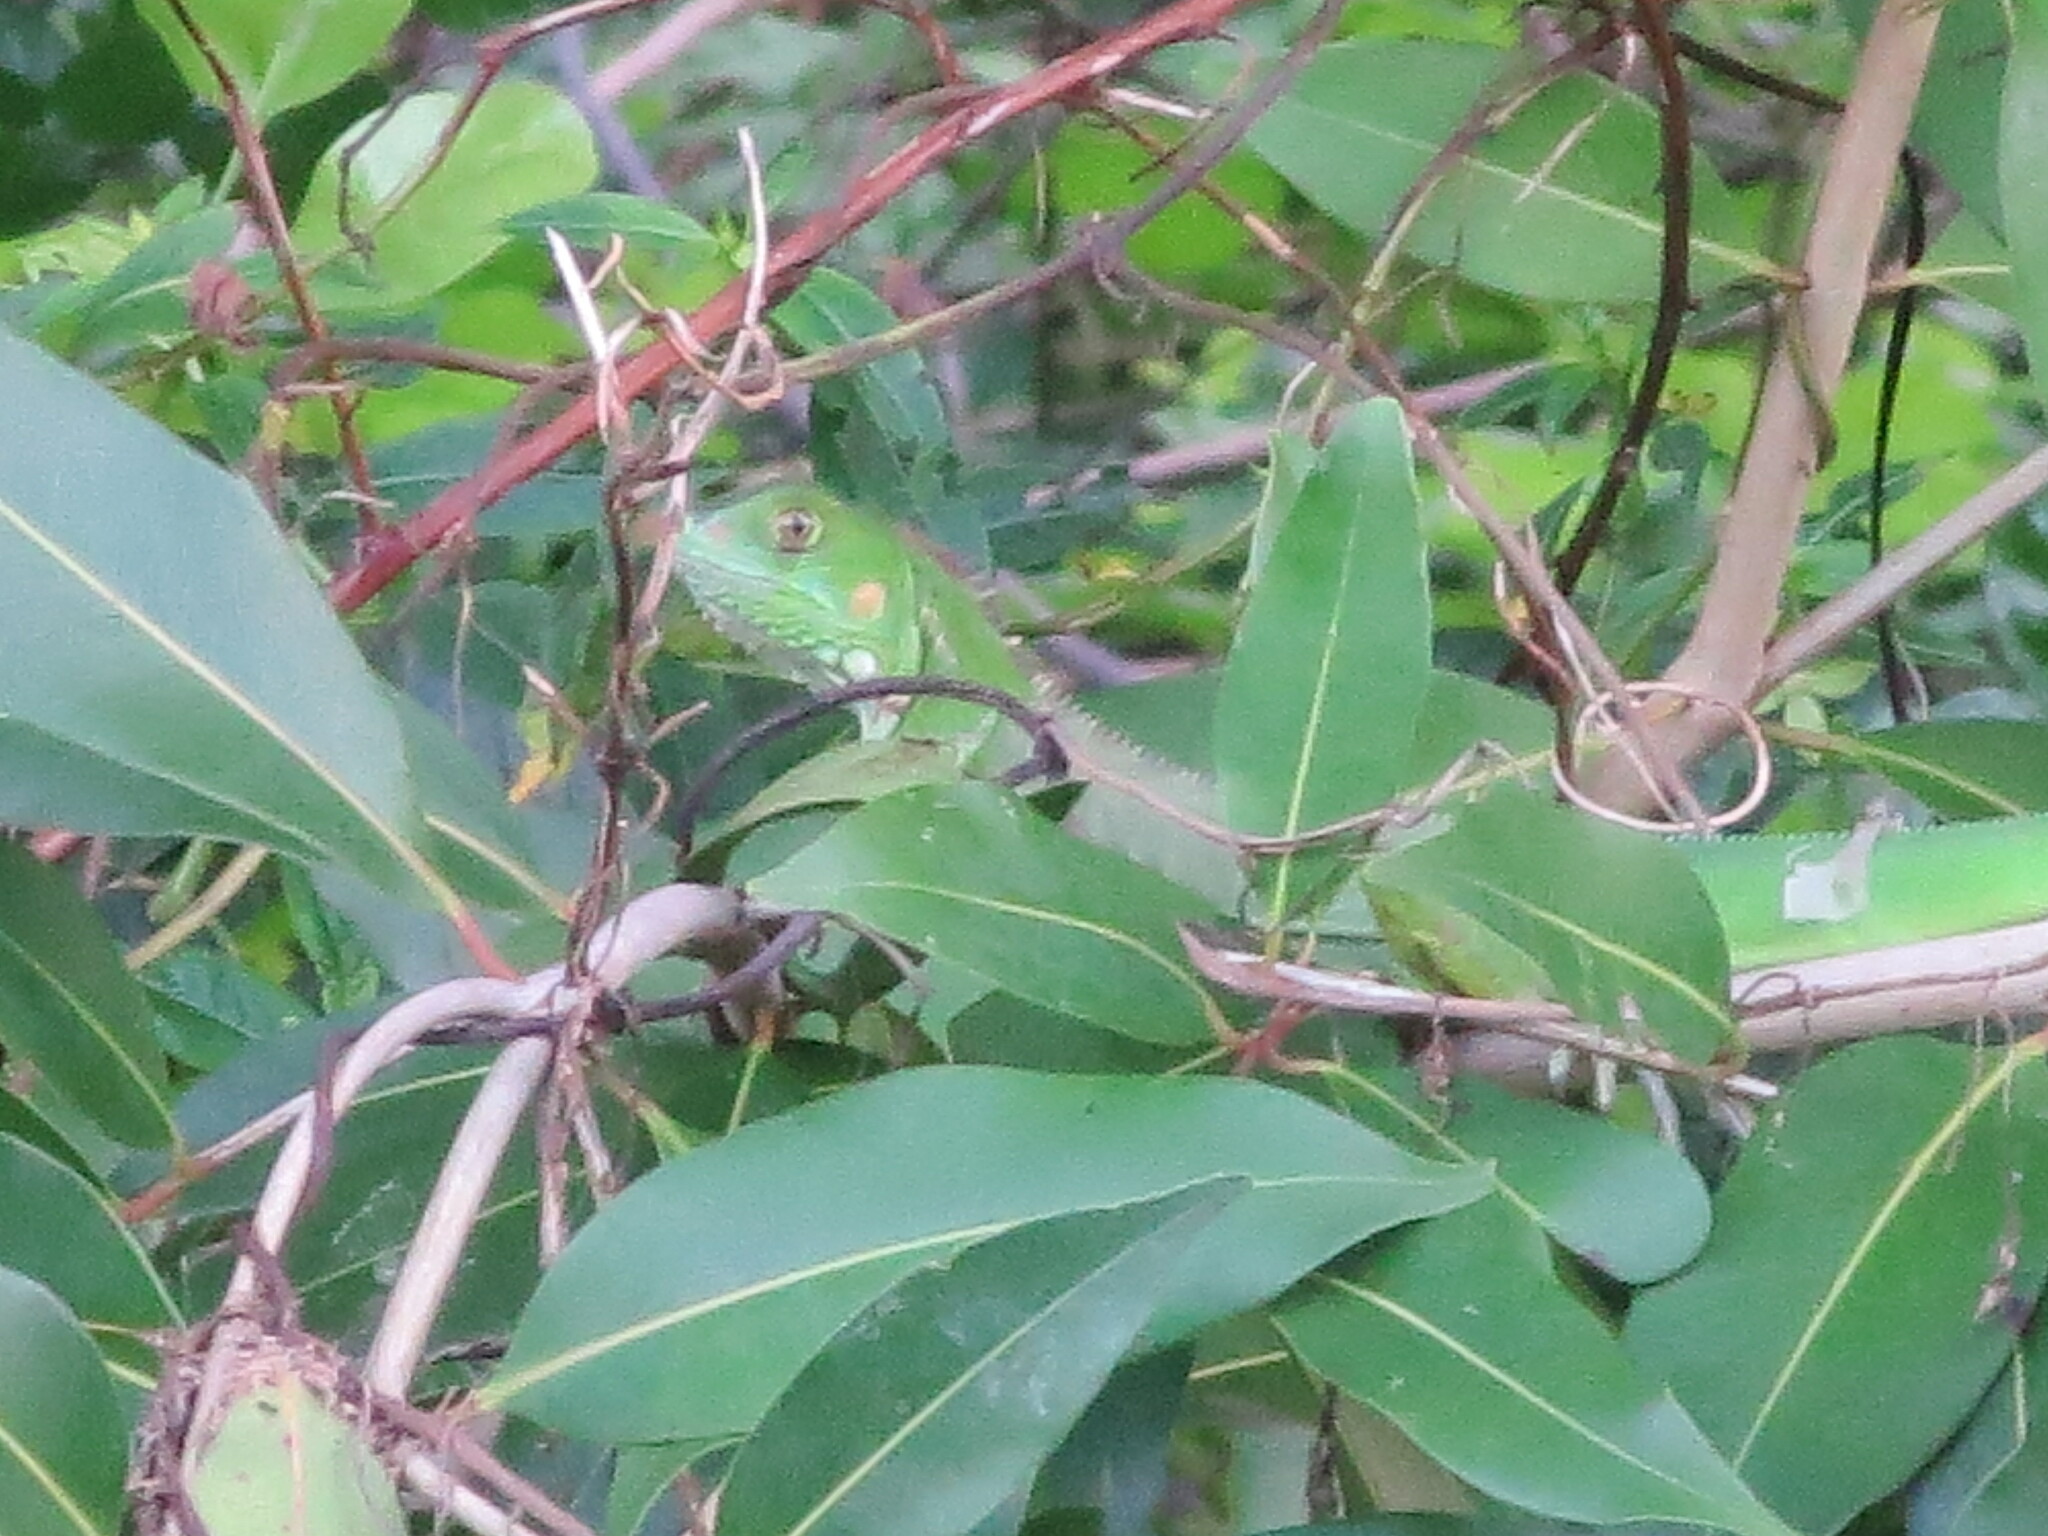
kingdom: Animalia
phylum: Chordata
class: Squamata
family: Iguanidae
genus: Iguana
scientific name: Iguana iguana
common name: Green iguana
